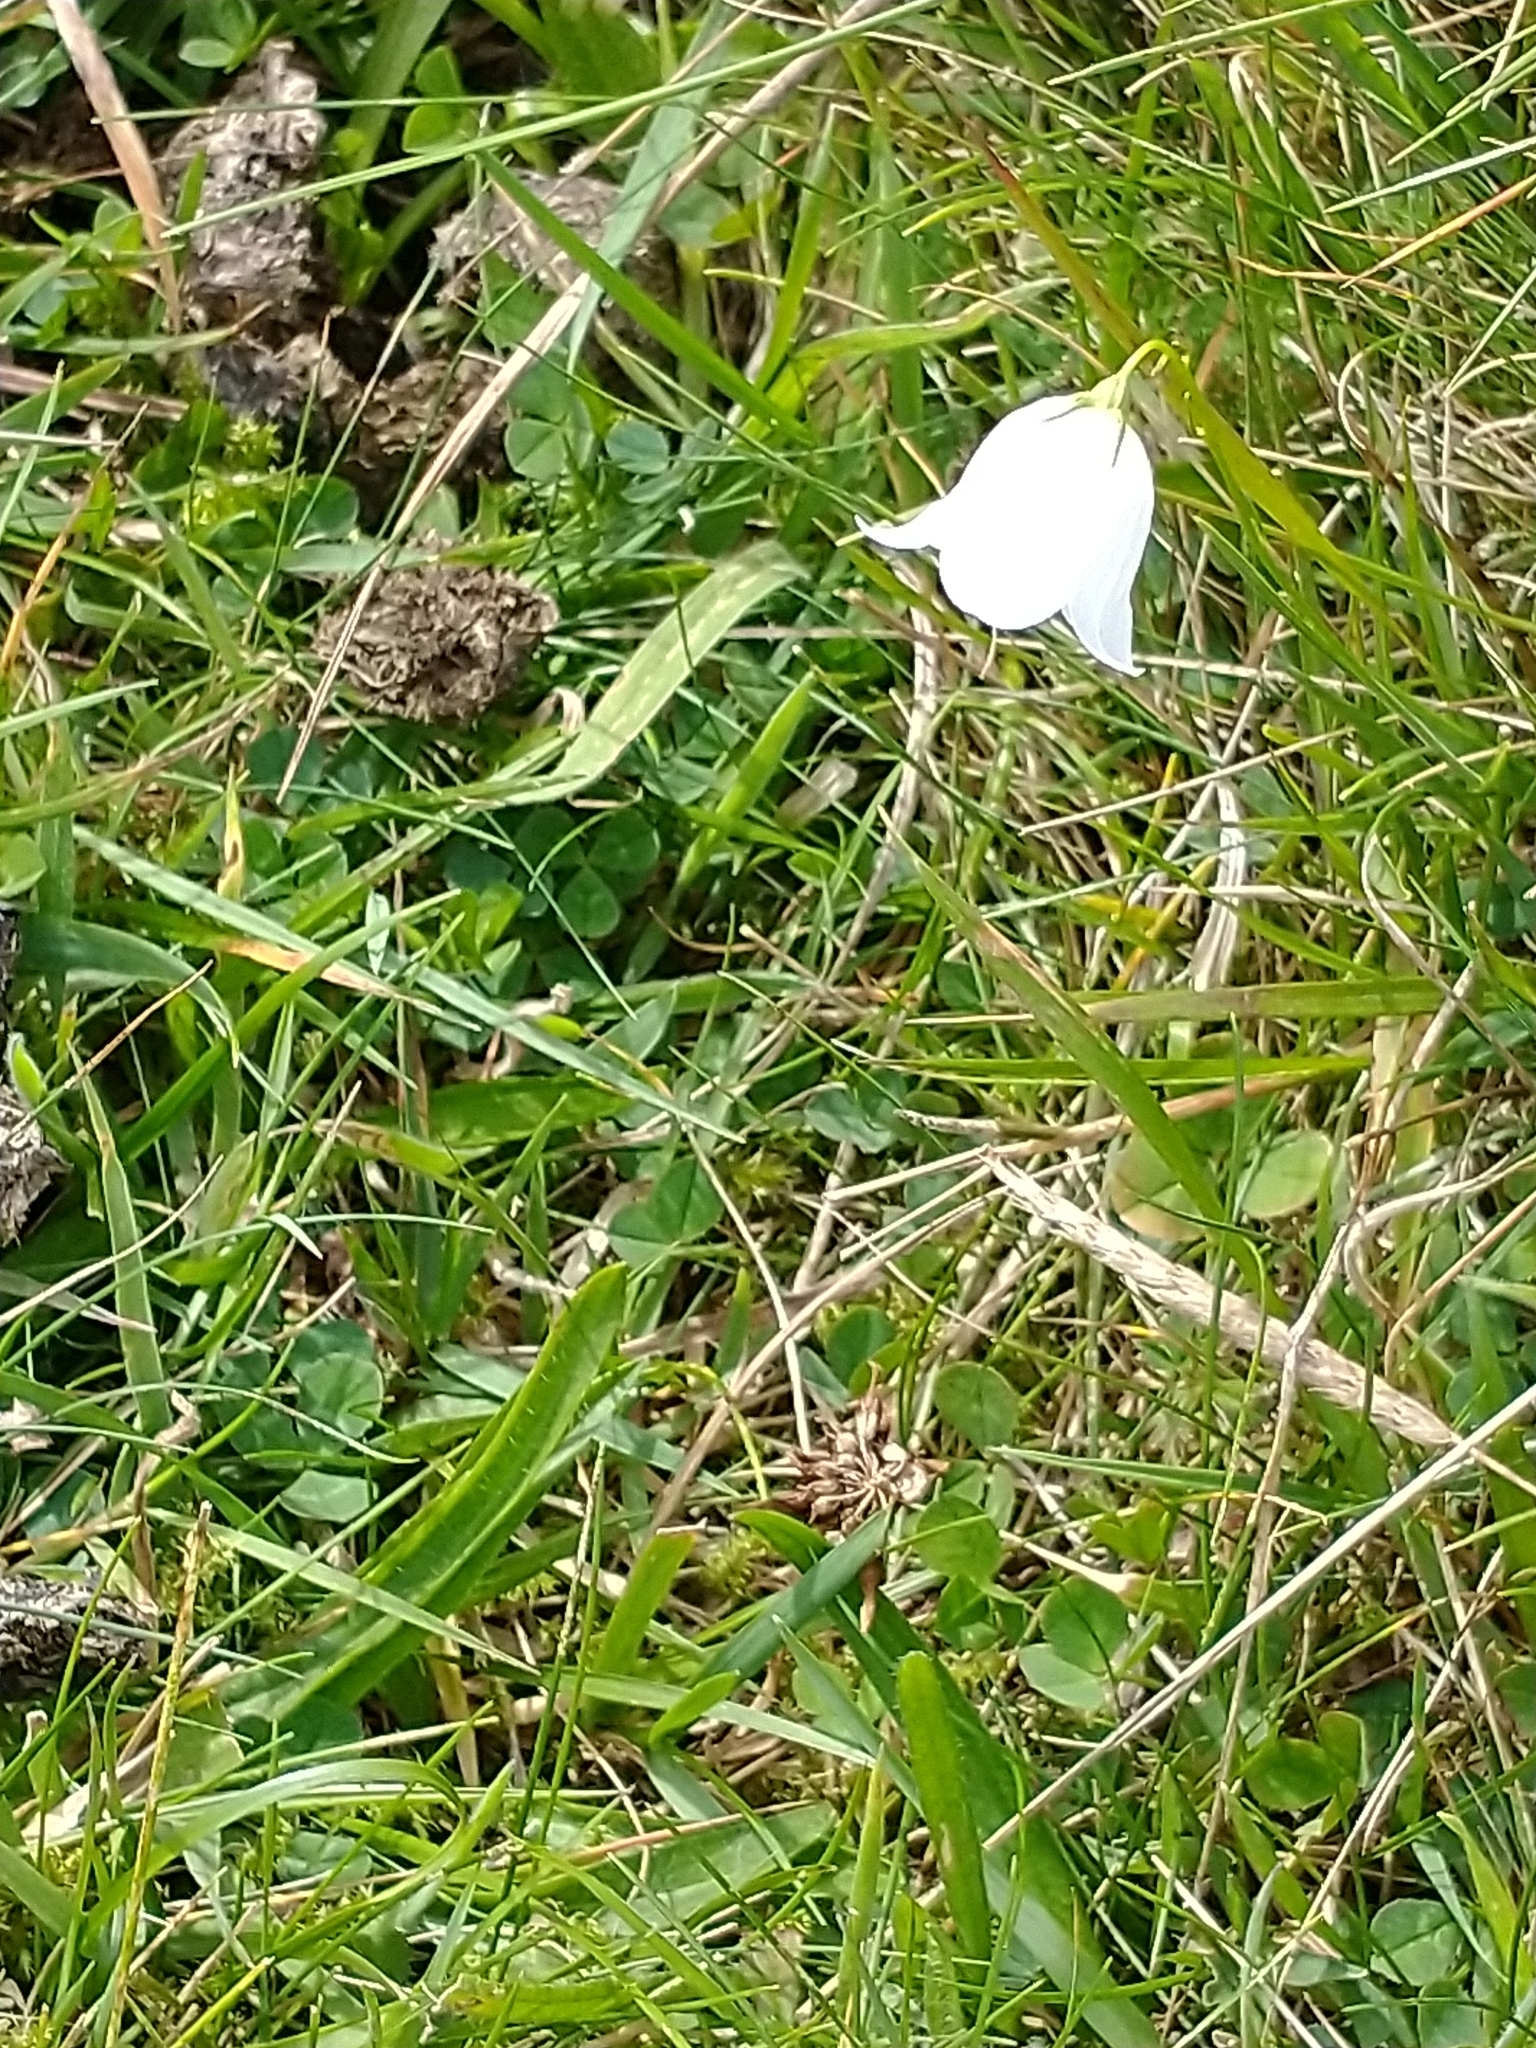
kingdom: Plantae
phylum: Tracheophyta
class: Magnoliopsida
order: Asterales
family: Campanulaceae
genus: Campanula
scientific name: Campanula rotundifolia
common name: Harebell
